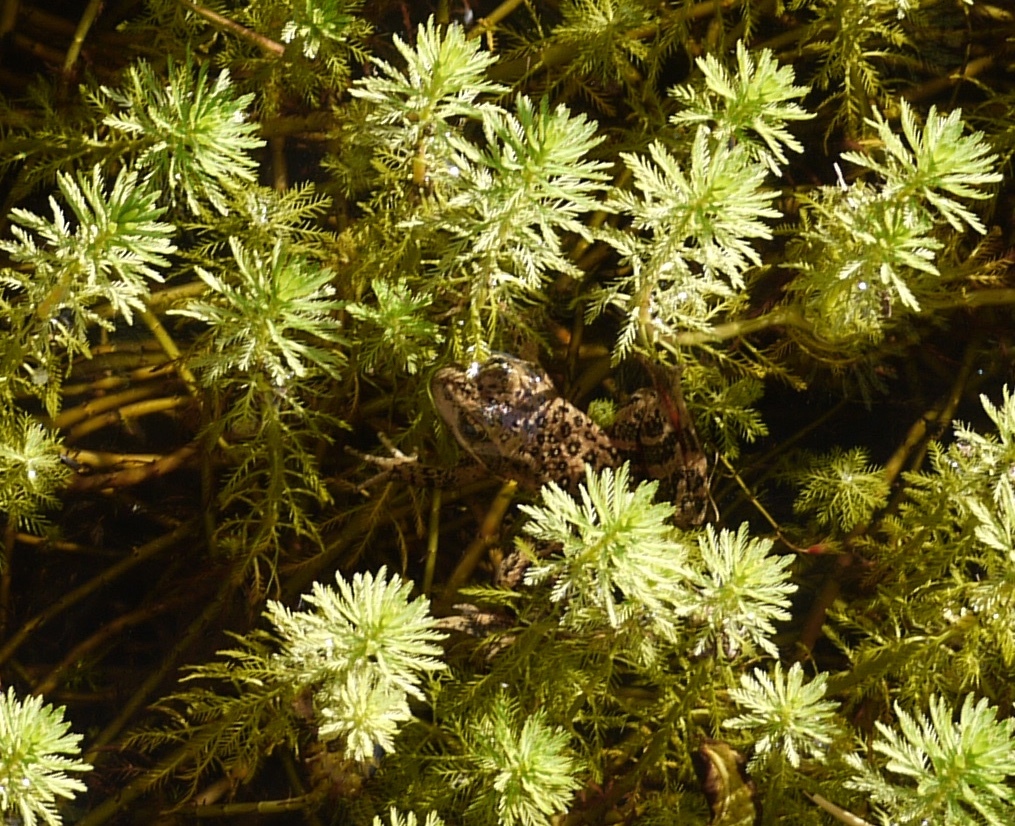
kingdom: Animalia
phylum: Chordata
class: Amphibia
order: Anura
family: Ranidae
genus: Rana
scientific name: Rana draytonii
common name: California red-legged frog
